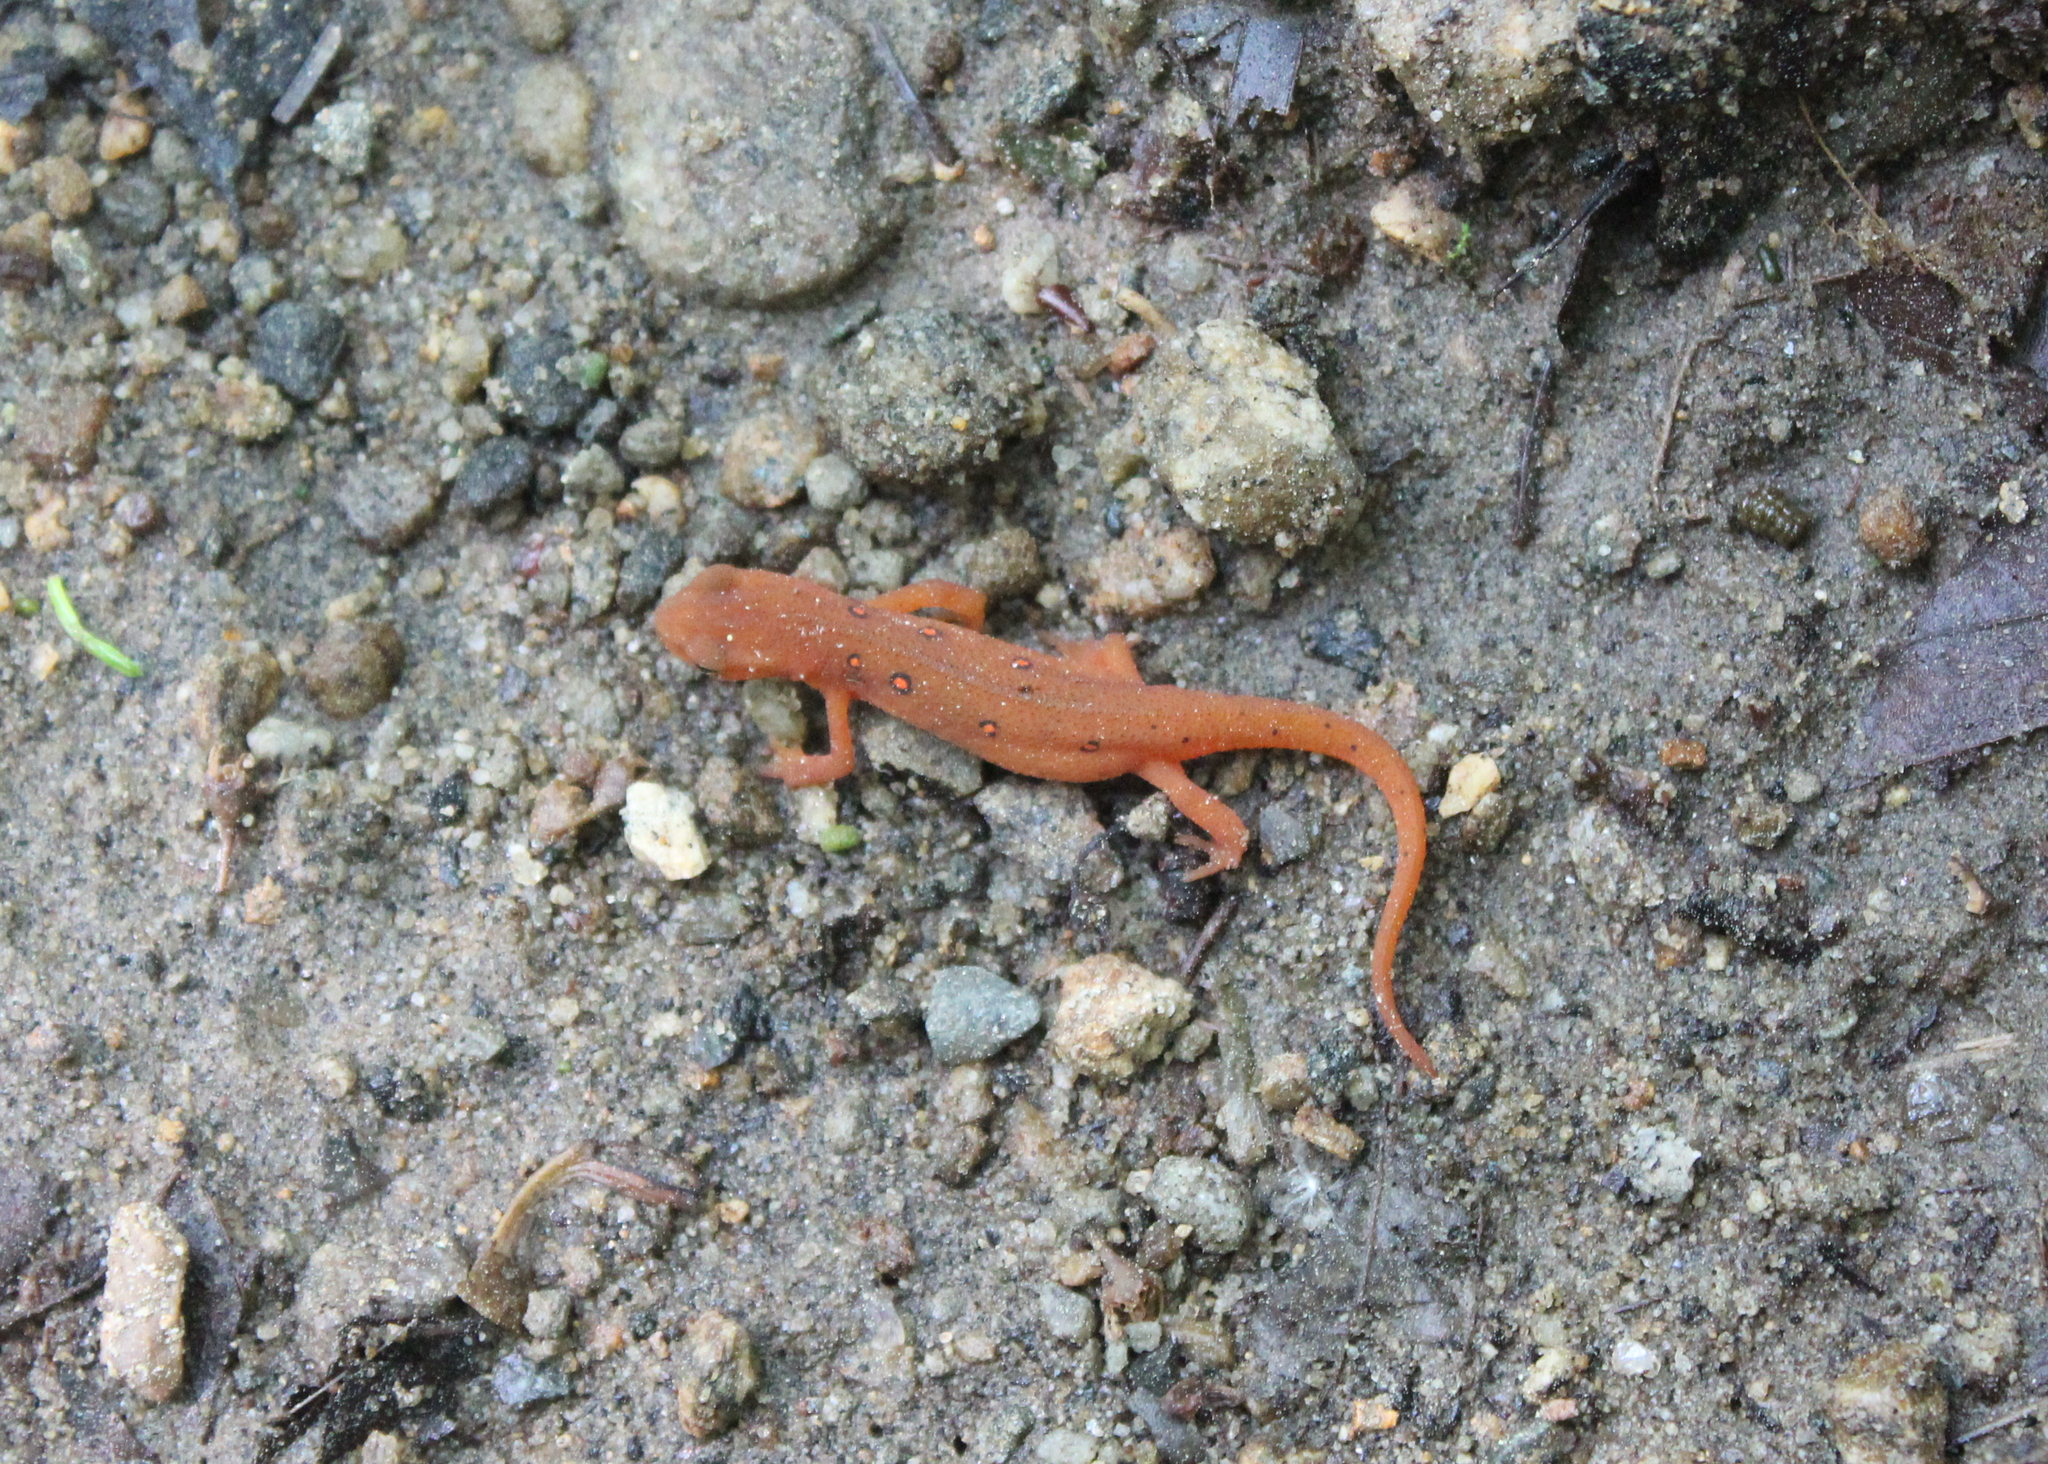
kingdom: Animalia
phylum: Chordata
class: Amphibia
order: Caudata
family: Salamandridae
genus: Notophthalmus
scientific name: Notophthalmus viridescens
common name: Eastern newt
